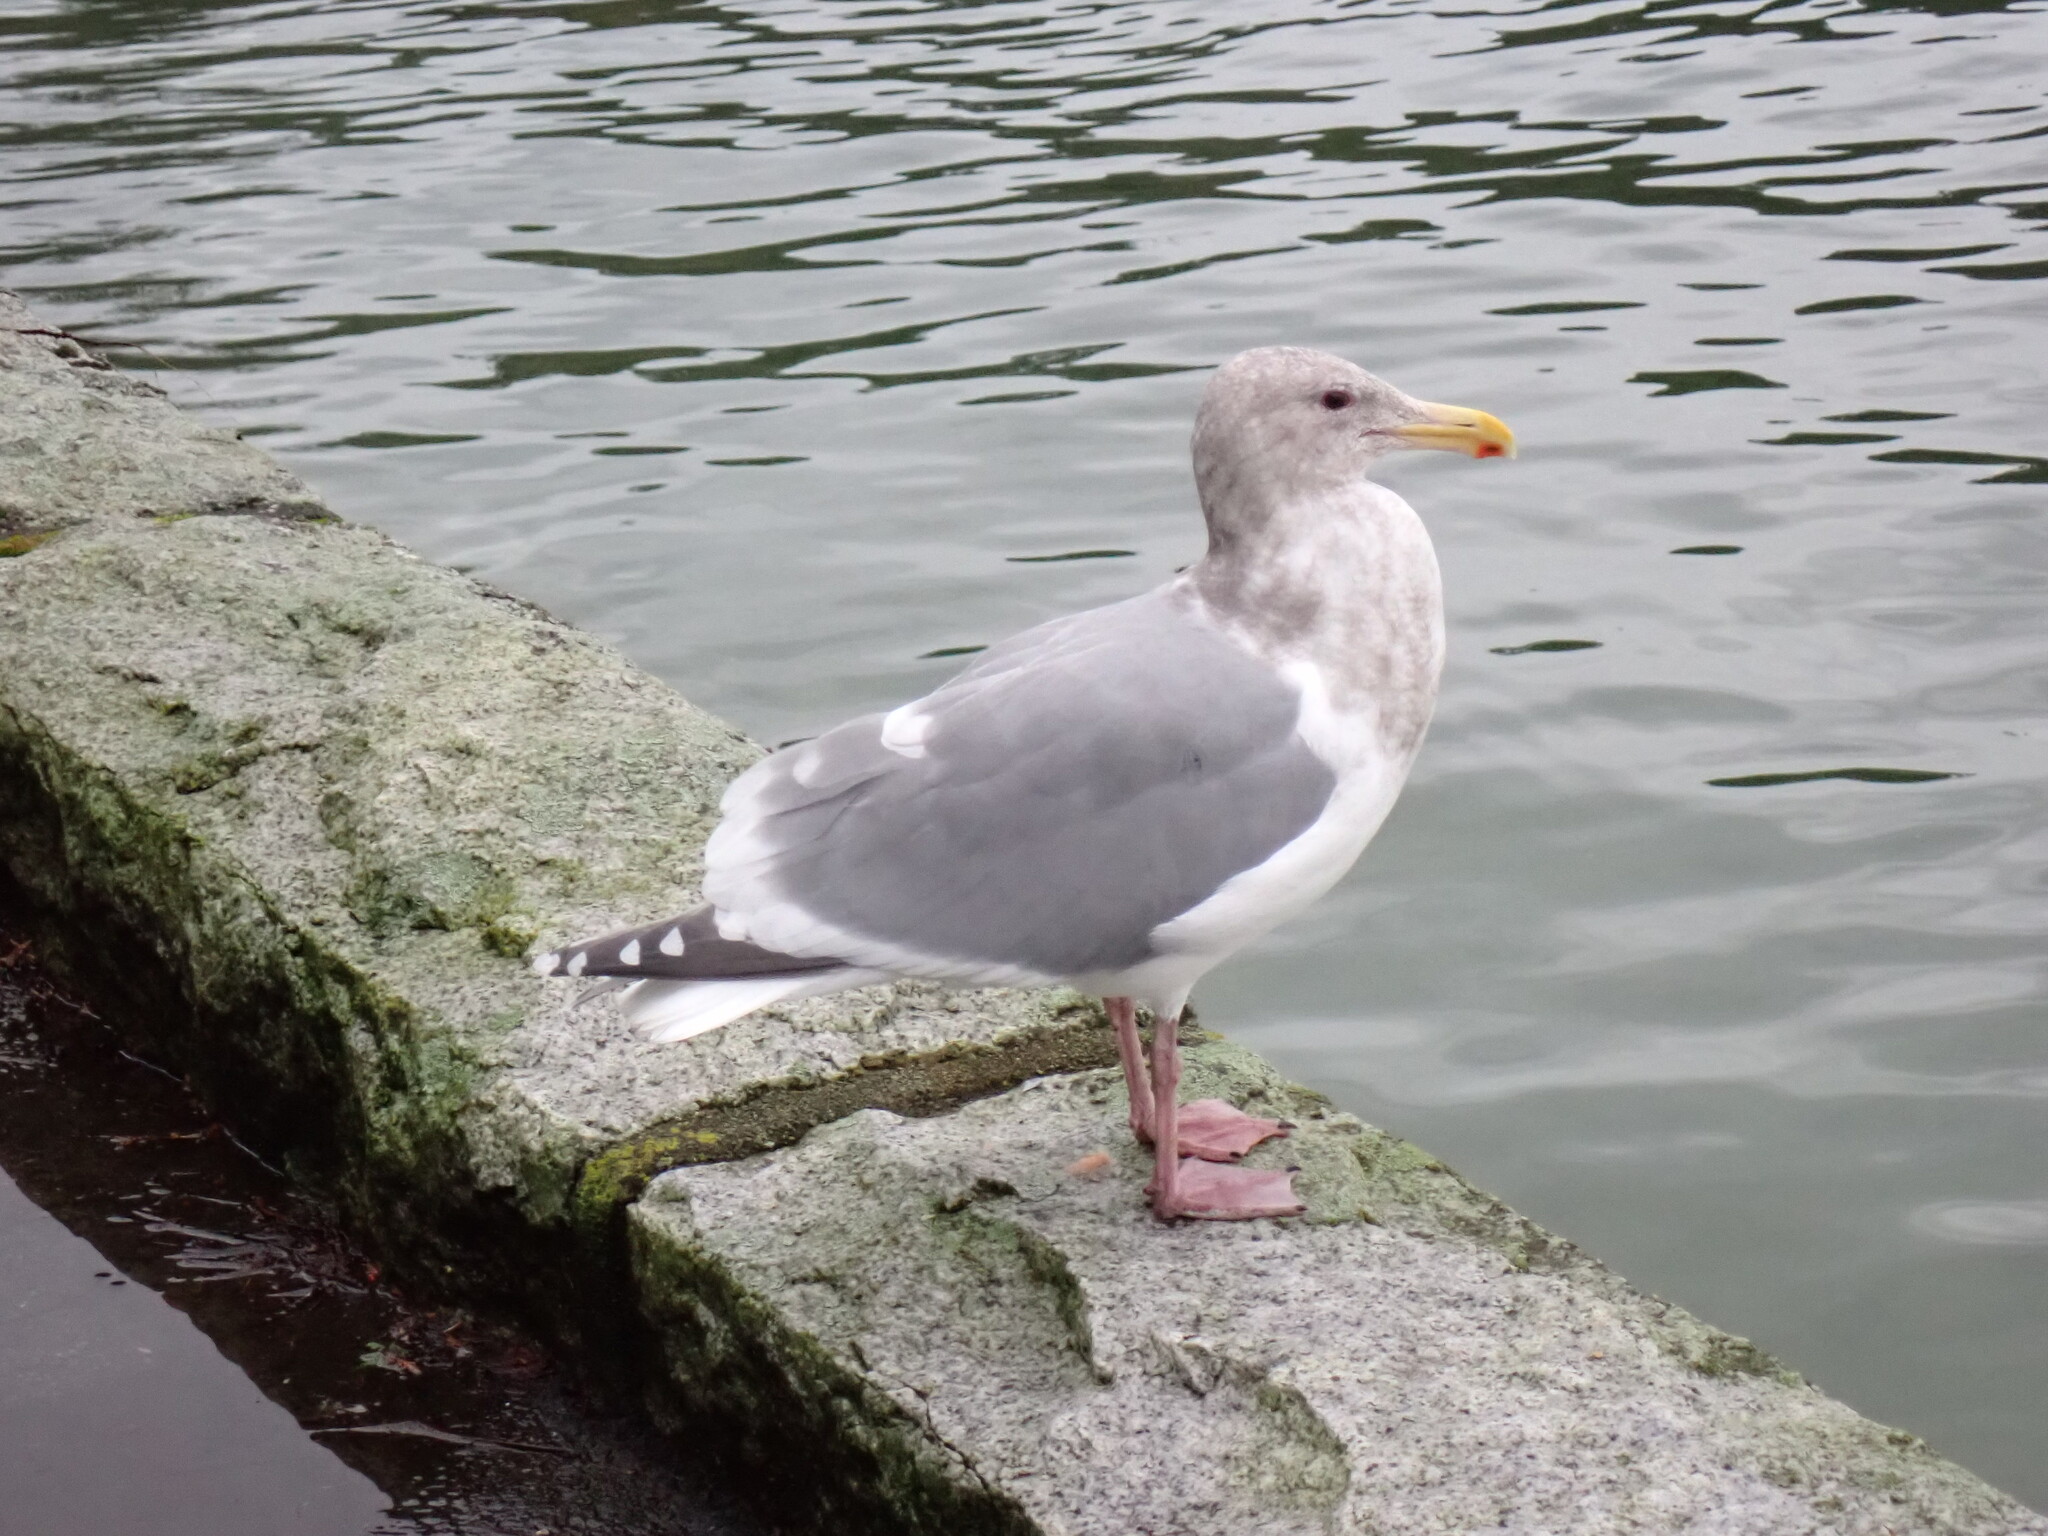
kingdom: Animalia
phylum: Chordata
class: Aves
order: Charadriiformes
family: Laridae
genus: Larus
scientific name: Larus
